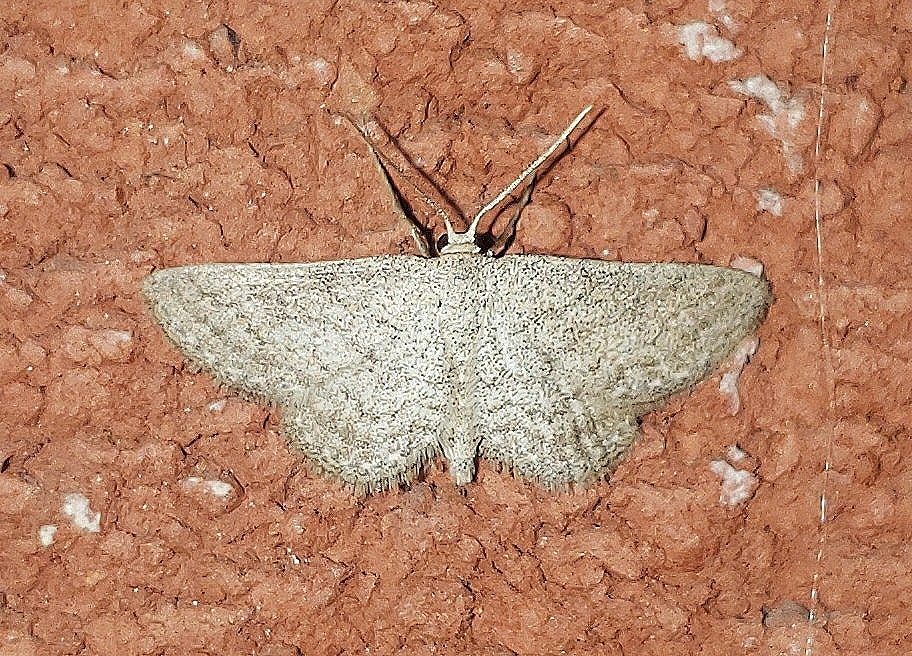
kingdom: Animalia
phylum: Arthropoda
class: Insecta
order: Lepidoptera
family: Geometridae
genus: Lobocleta
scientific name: Lobocleta ossularia
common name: Drab brown wave
